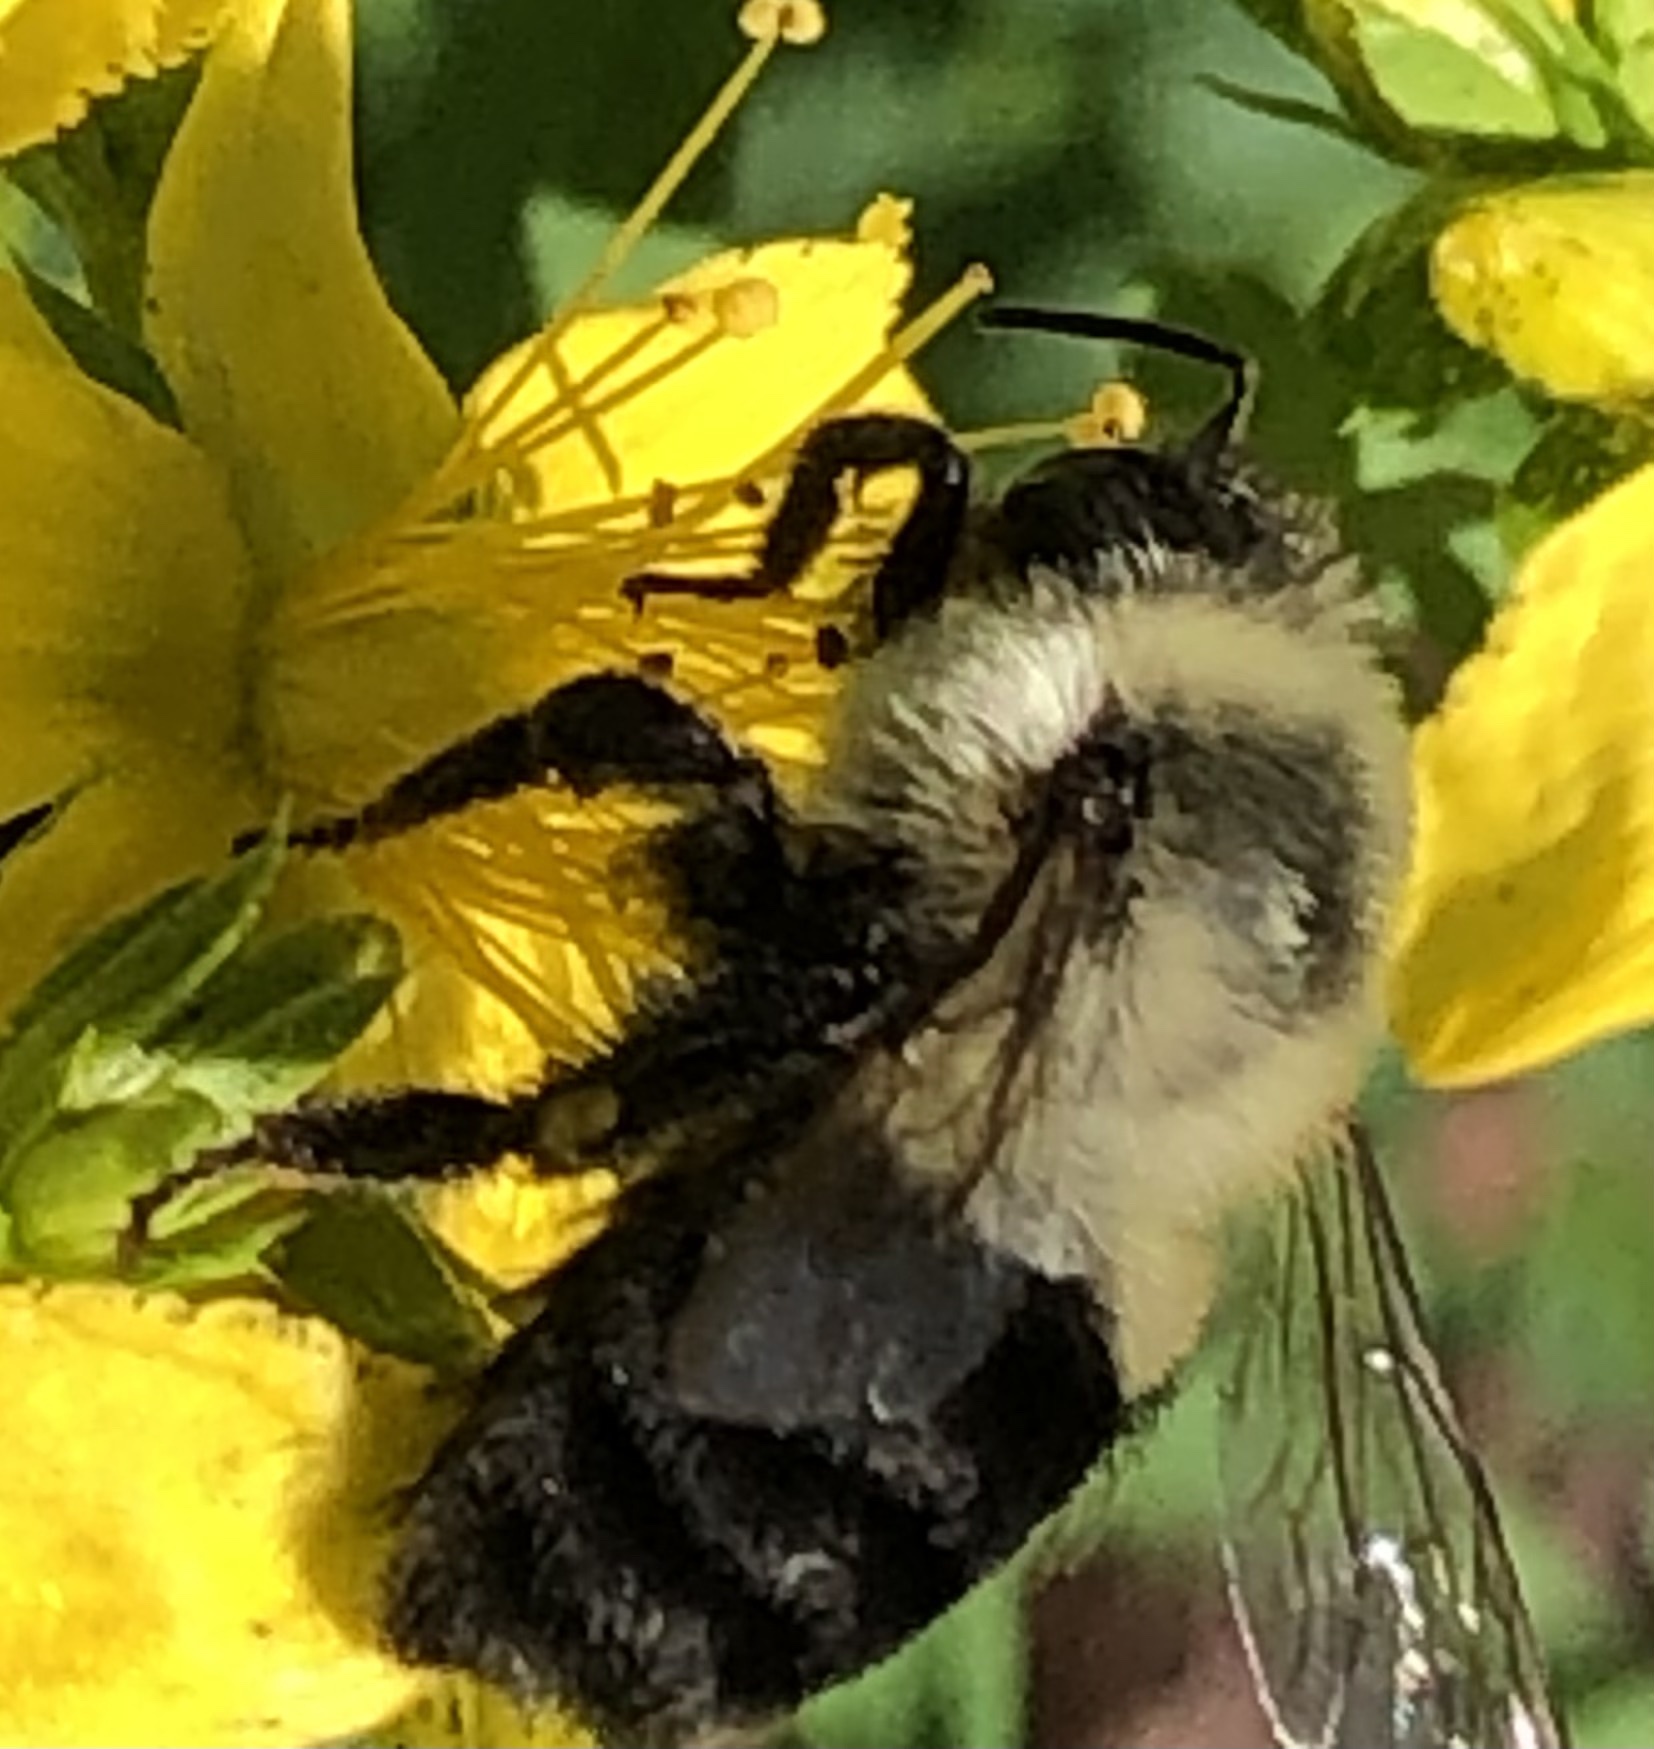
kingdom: Animalia
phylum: Arthropoda
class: Insecta
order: Hymenoptera
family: Apidae
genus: Bombus
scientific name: Bombus impatiens
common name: Common eastern bumble bee
